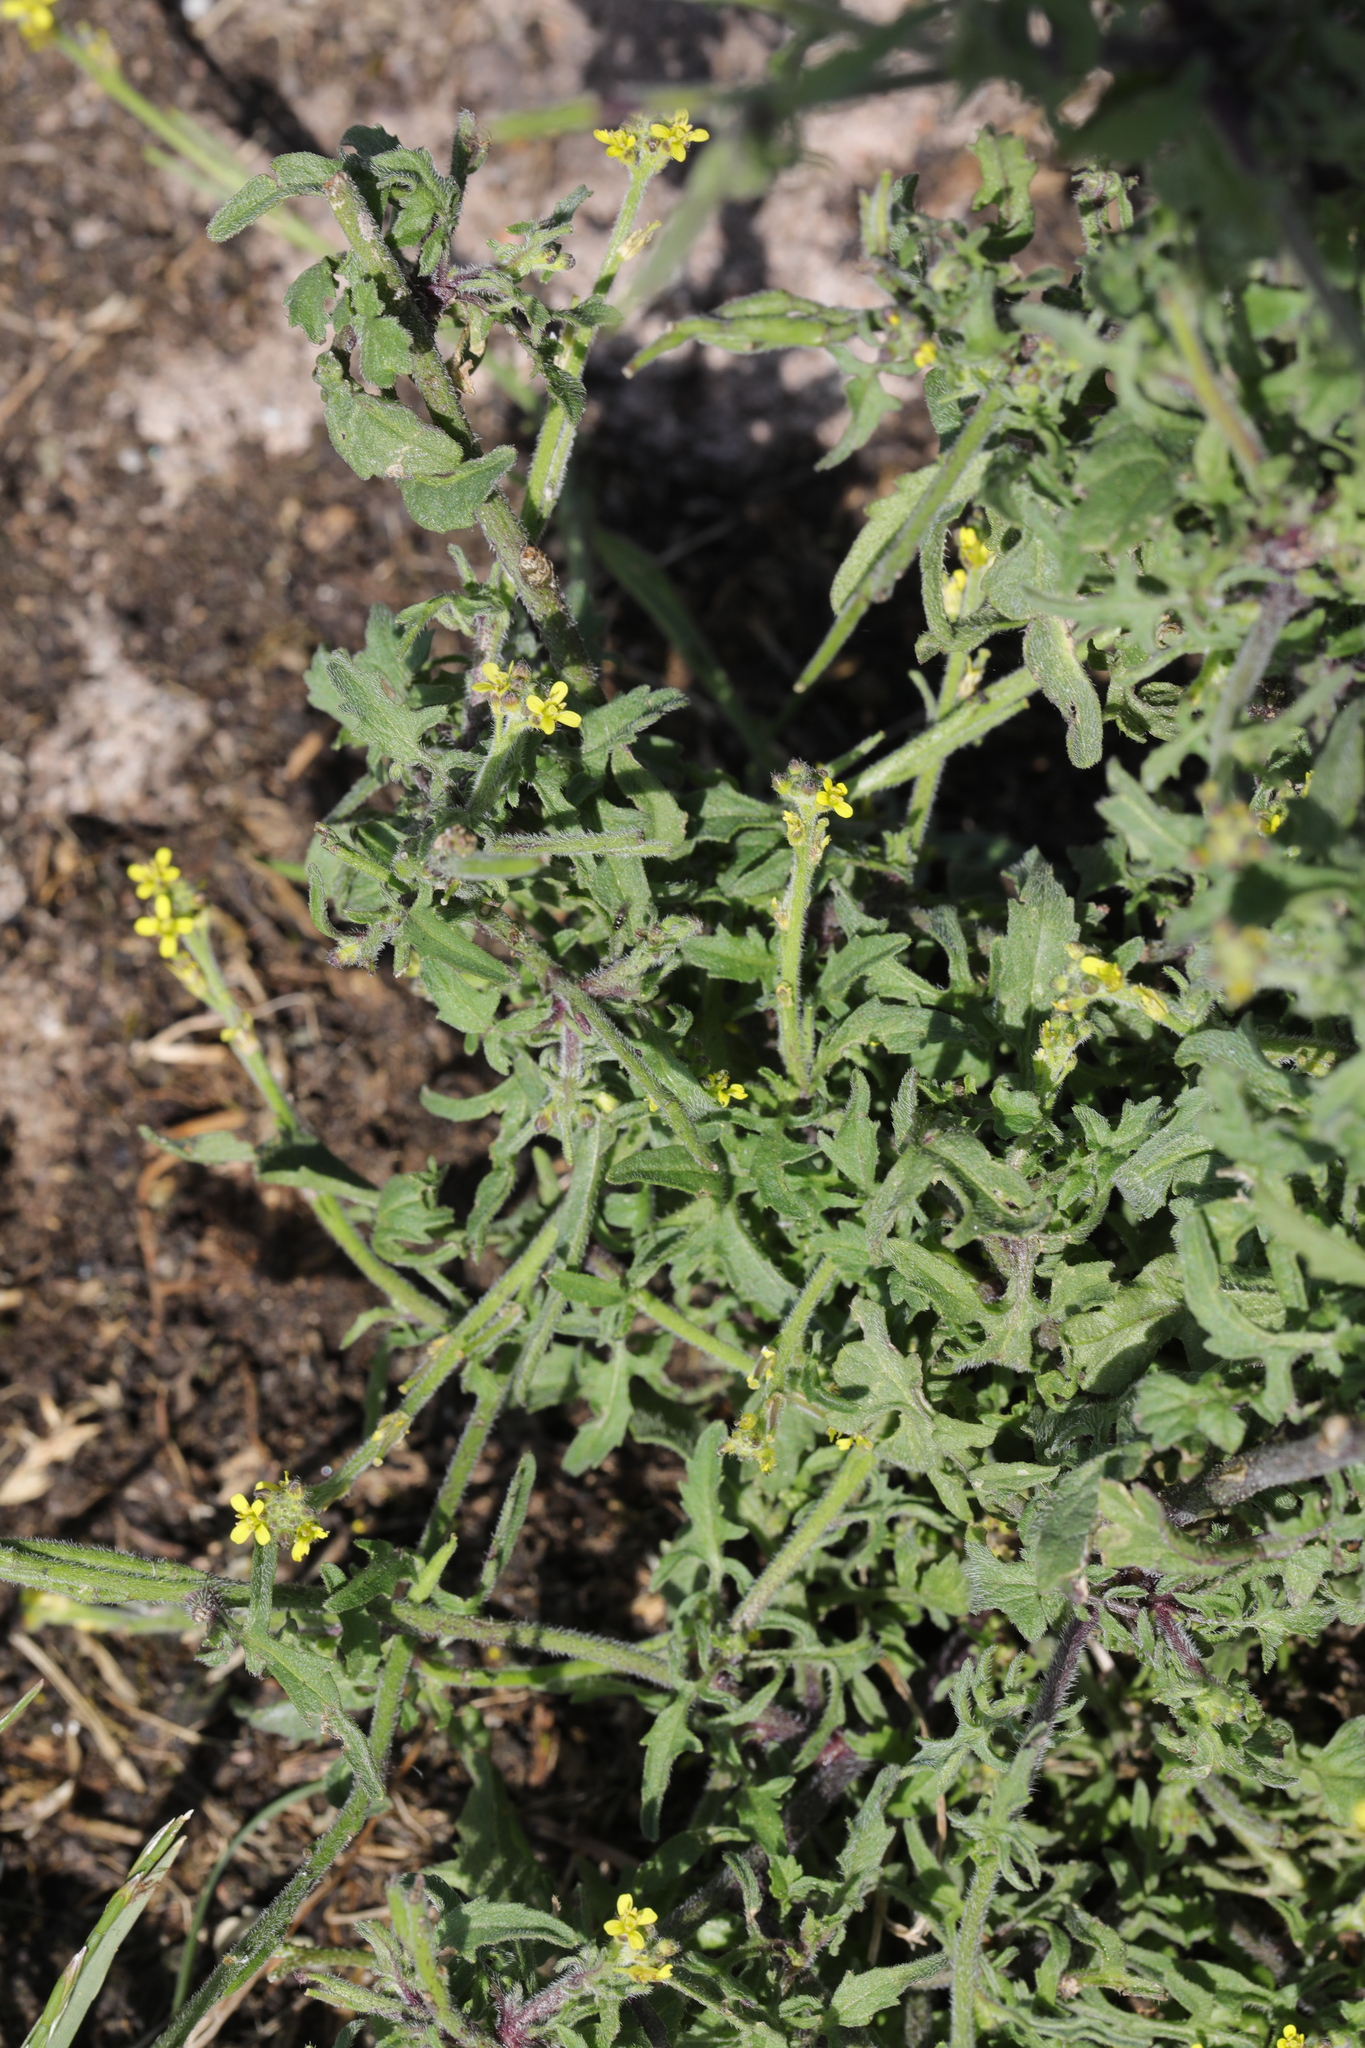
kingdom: Plantae
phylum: Tracheophyta
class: Magnoliopsida
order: Brassicales
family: Brassicaceae
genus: Sisymbrium
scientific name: Sisymbrium officinale
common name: Hedge mustard
